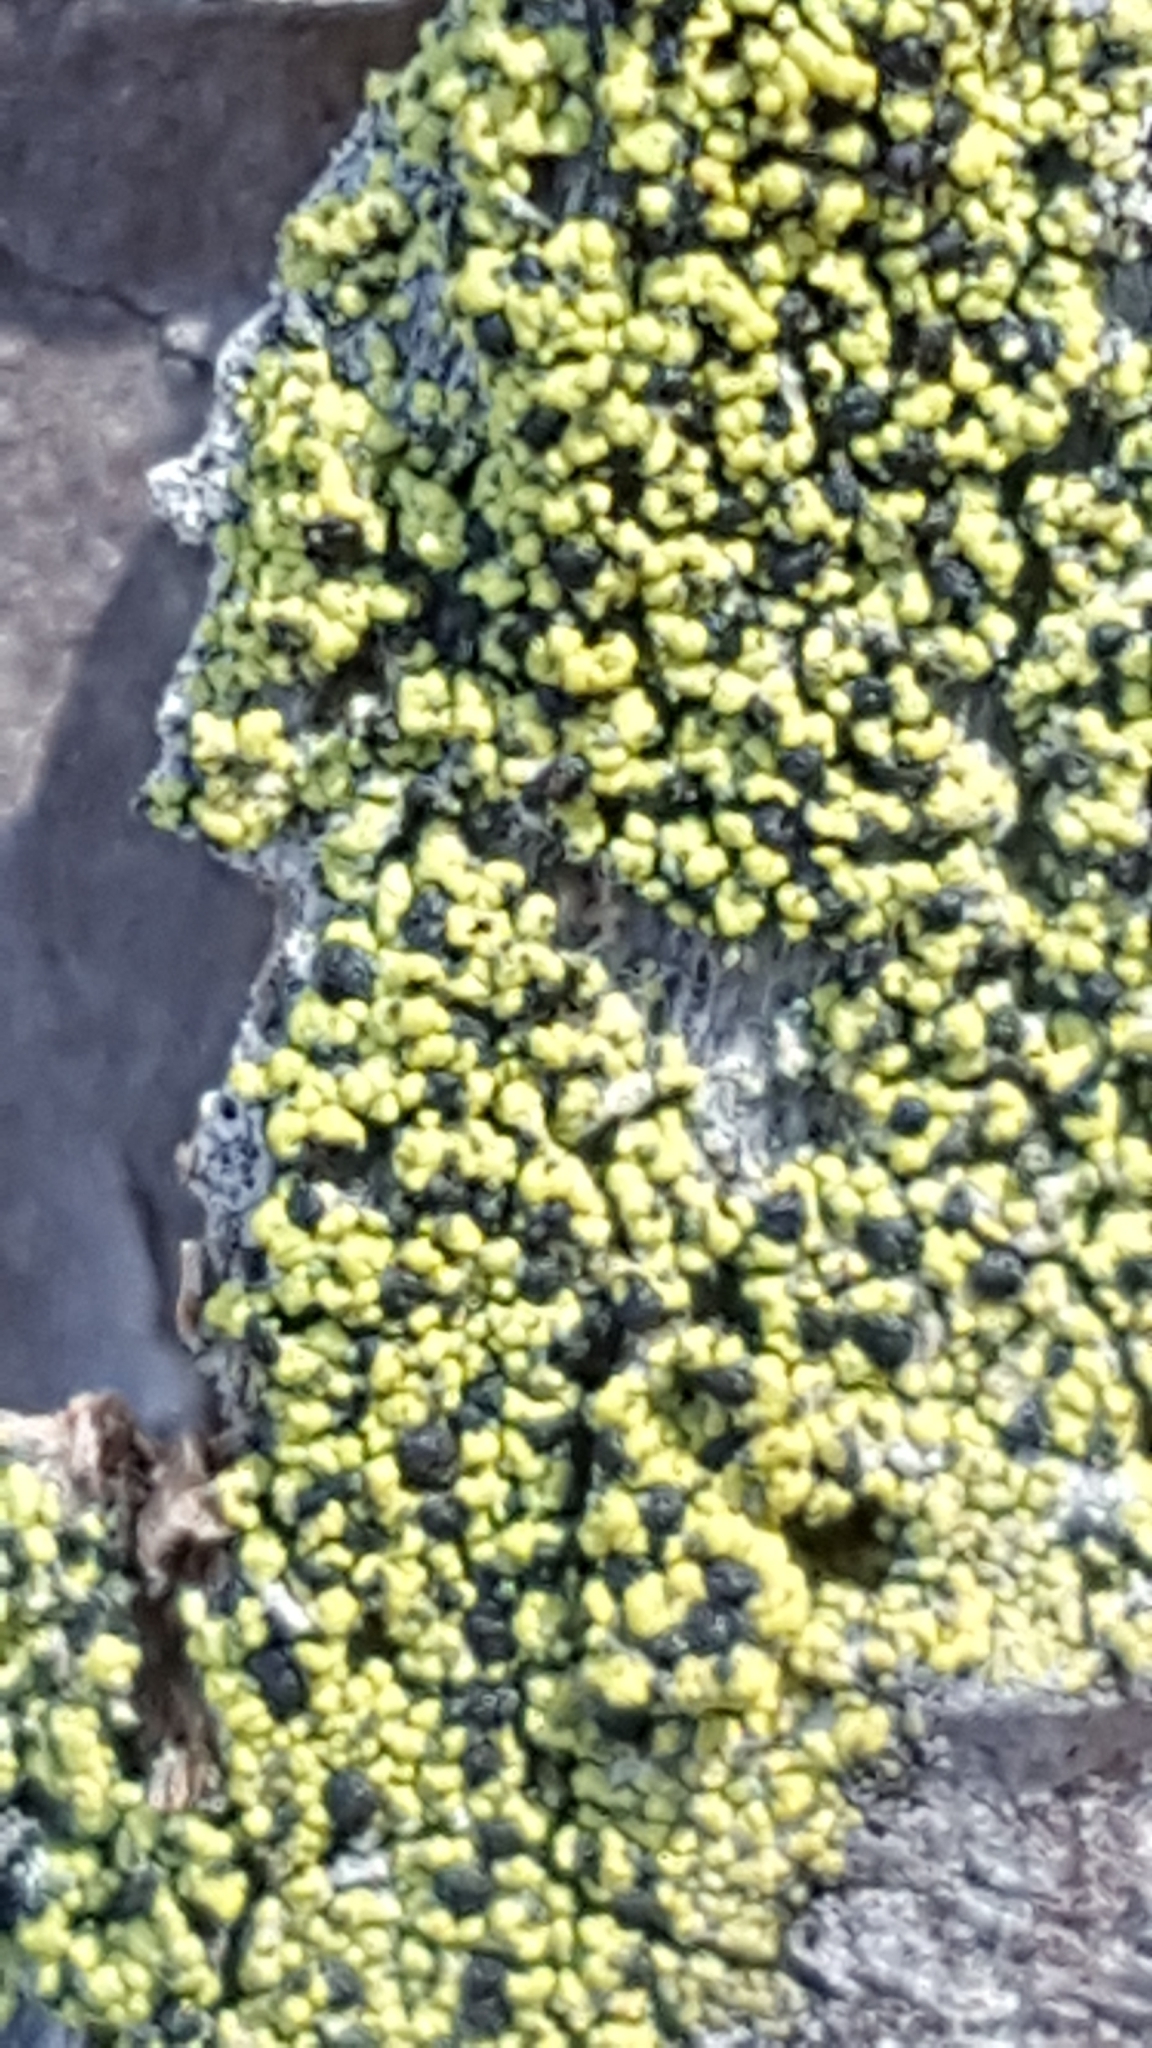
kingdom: Fungi
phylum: Ascomycota
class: Lecanoromycetes
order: Caliciales
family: Caliciaceae
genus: Calicium
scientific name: Calicium lucidum
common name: Yellow soot lichen
